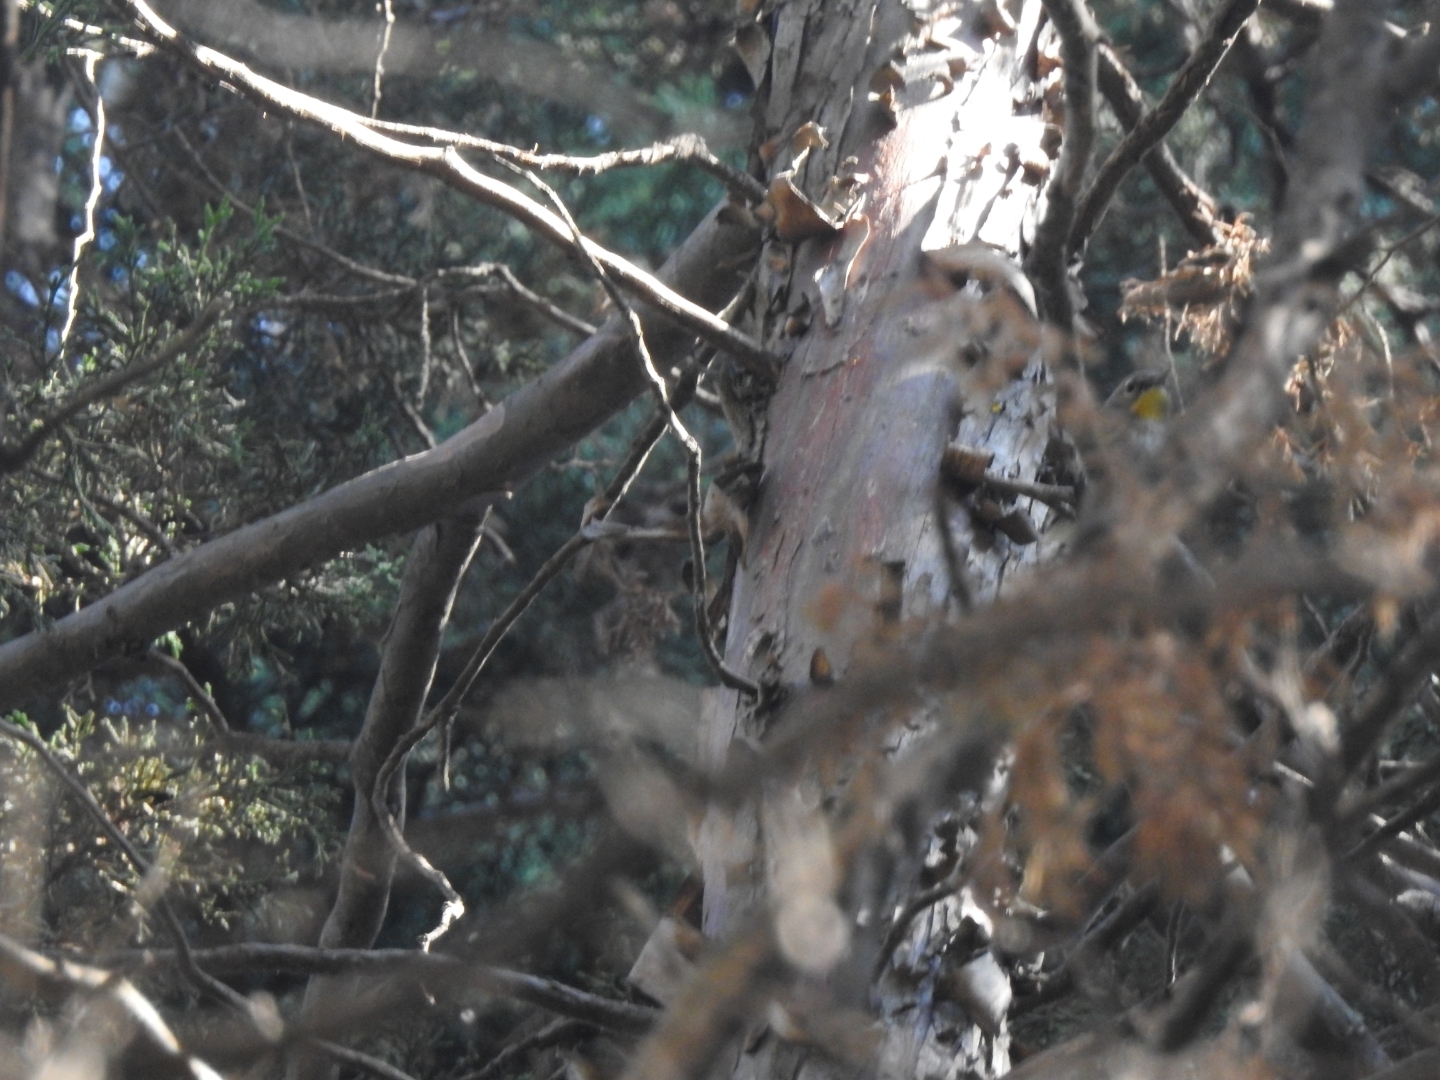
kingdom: Animalia
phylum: Chordata
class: Aves
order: Passeriformes
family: Parulidae
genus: Setophaga
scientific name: Setophaga coronata
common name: Myrtle warbler
